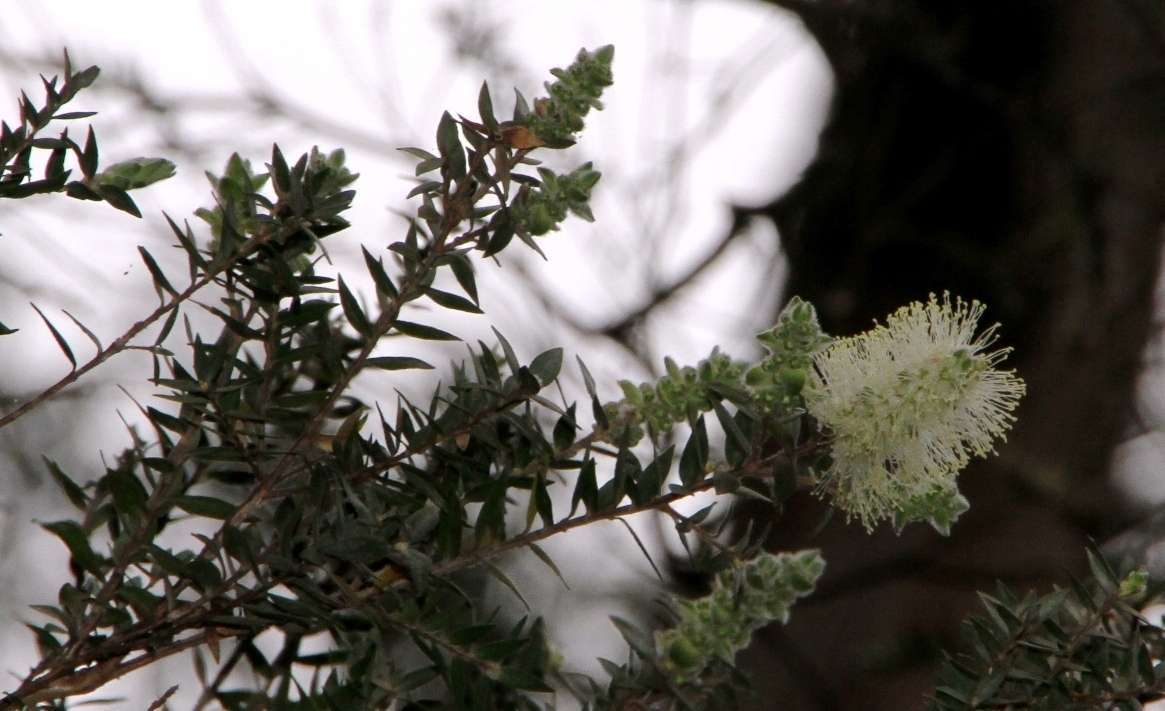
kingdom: Plantae
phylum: Tracheophyta
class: Magnoliopsida
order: Myrtales
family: Myrtaceae
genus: Melaleuca
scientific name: Melaleuca squarrosa
